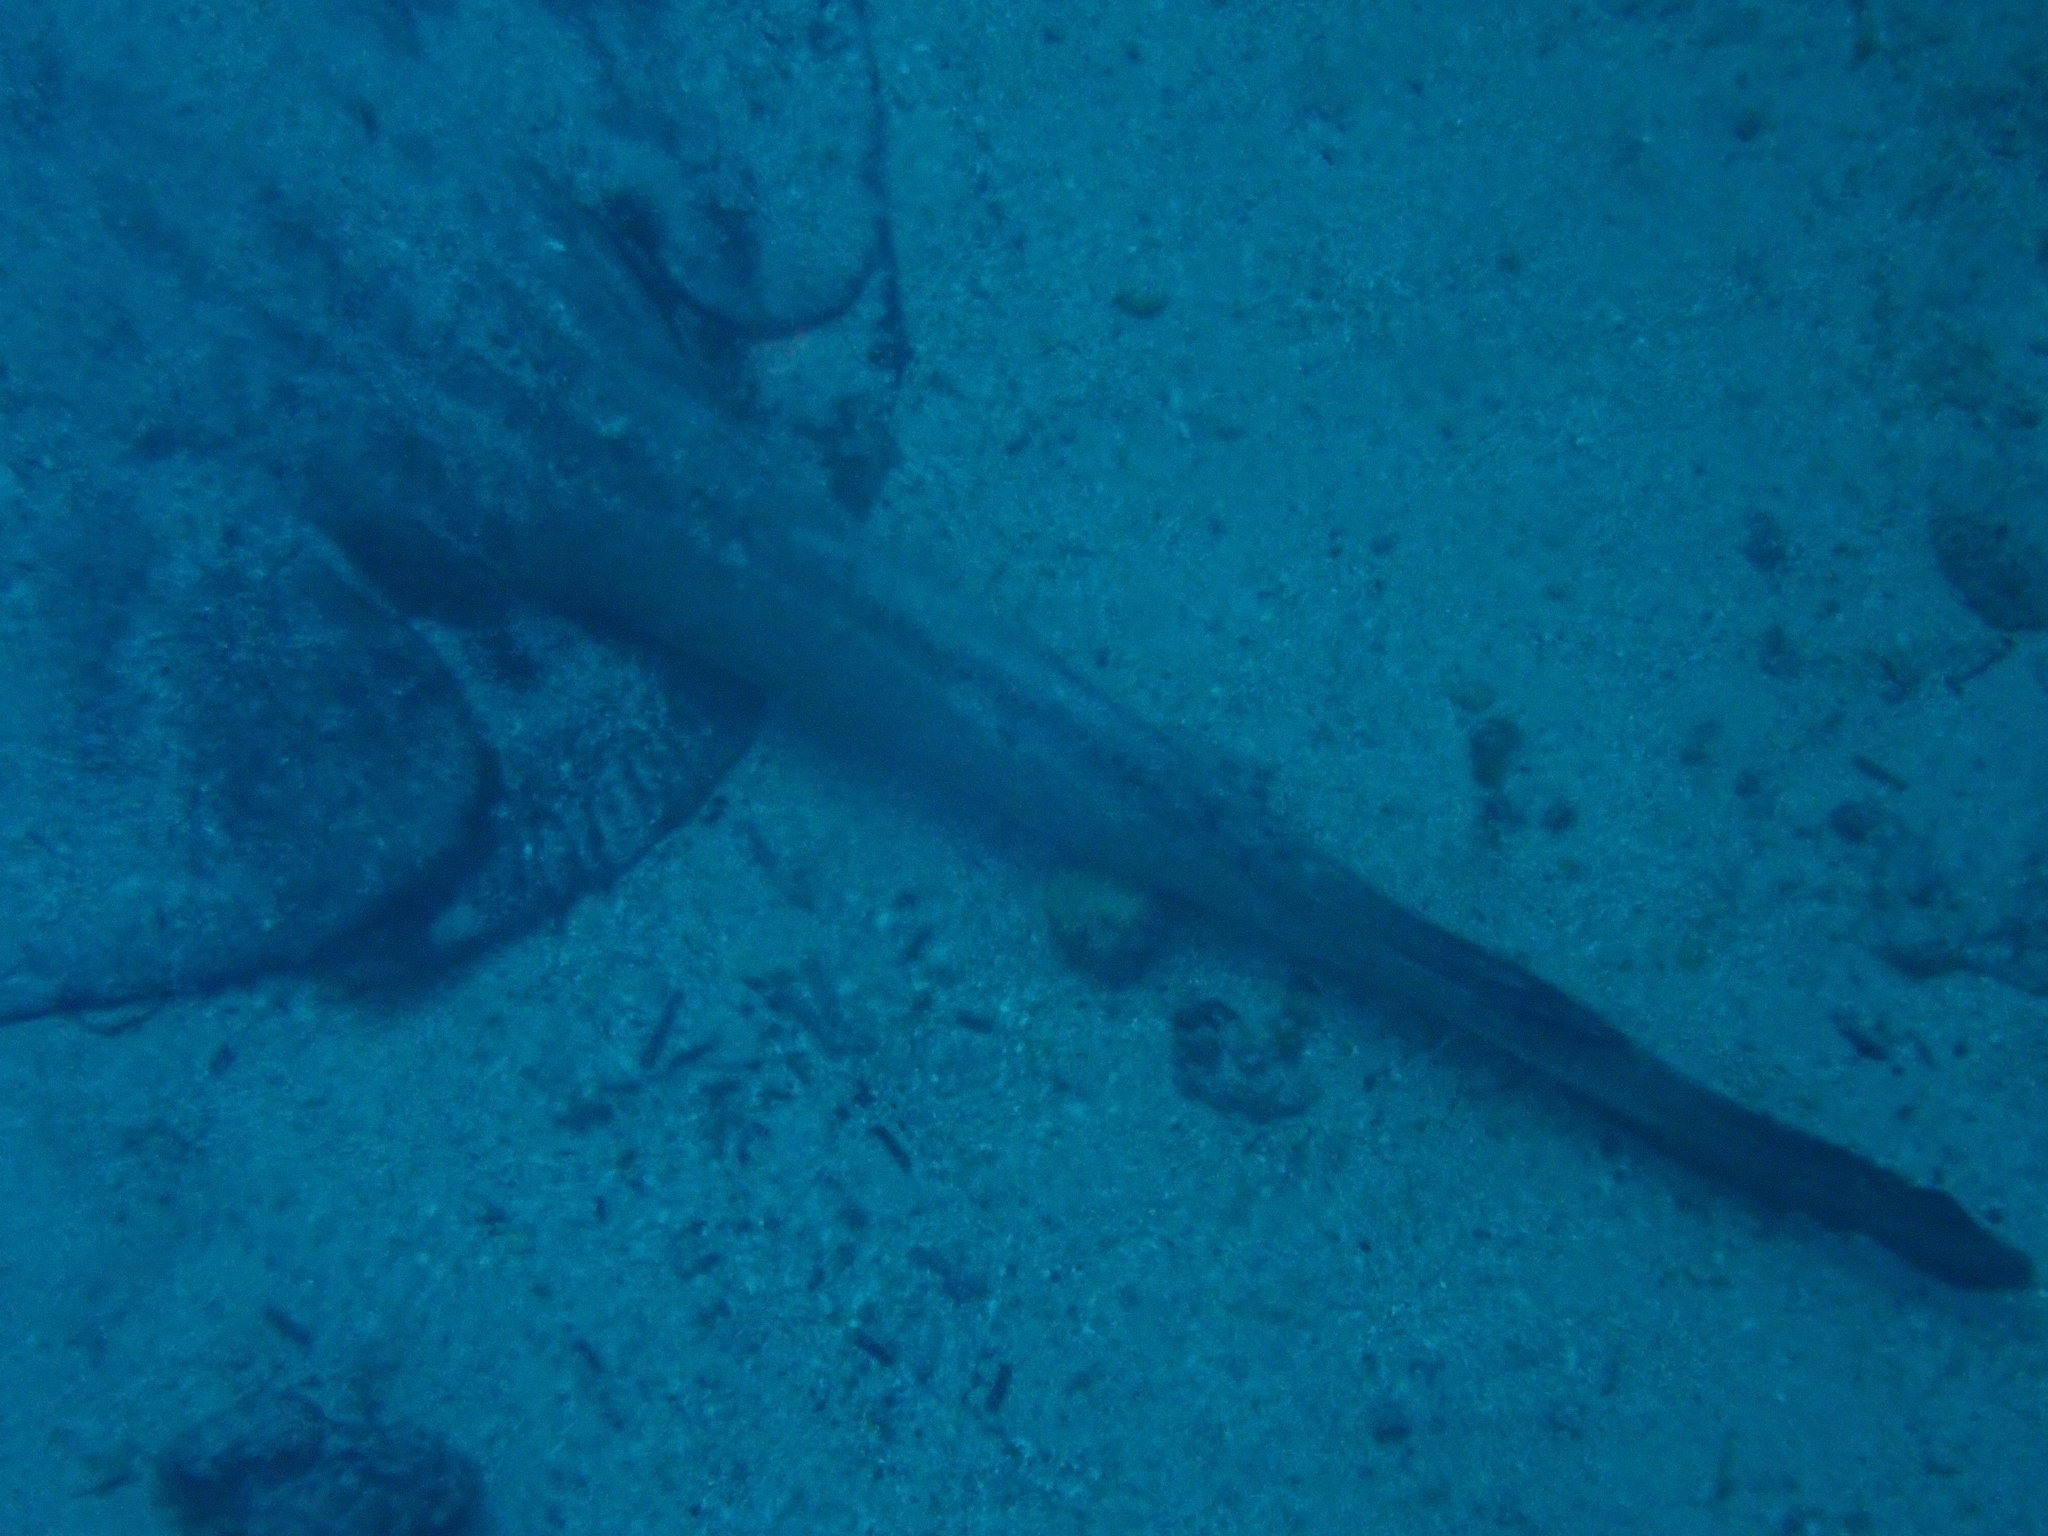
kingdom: Animalia
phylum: Chordata
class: Elasmobranchii
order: Myliobatiformes
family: Dasyatidae
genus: Hypanus
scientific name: Hypanus dipterurus
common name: Diamond stingray
